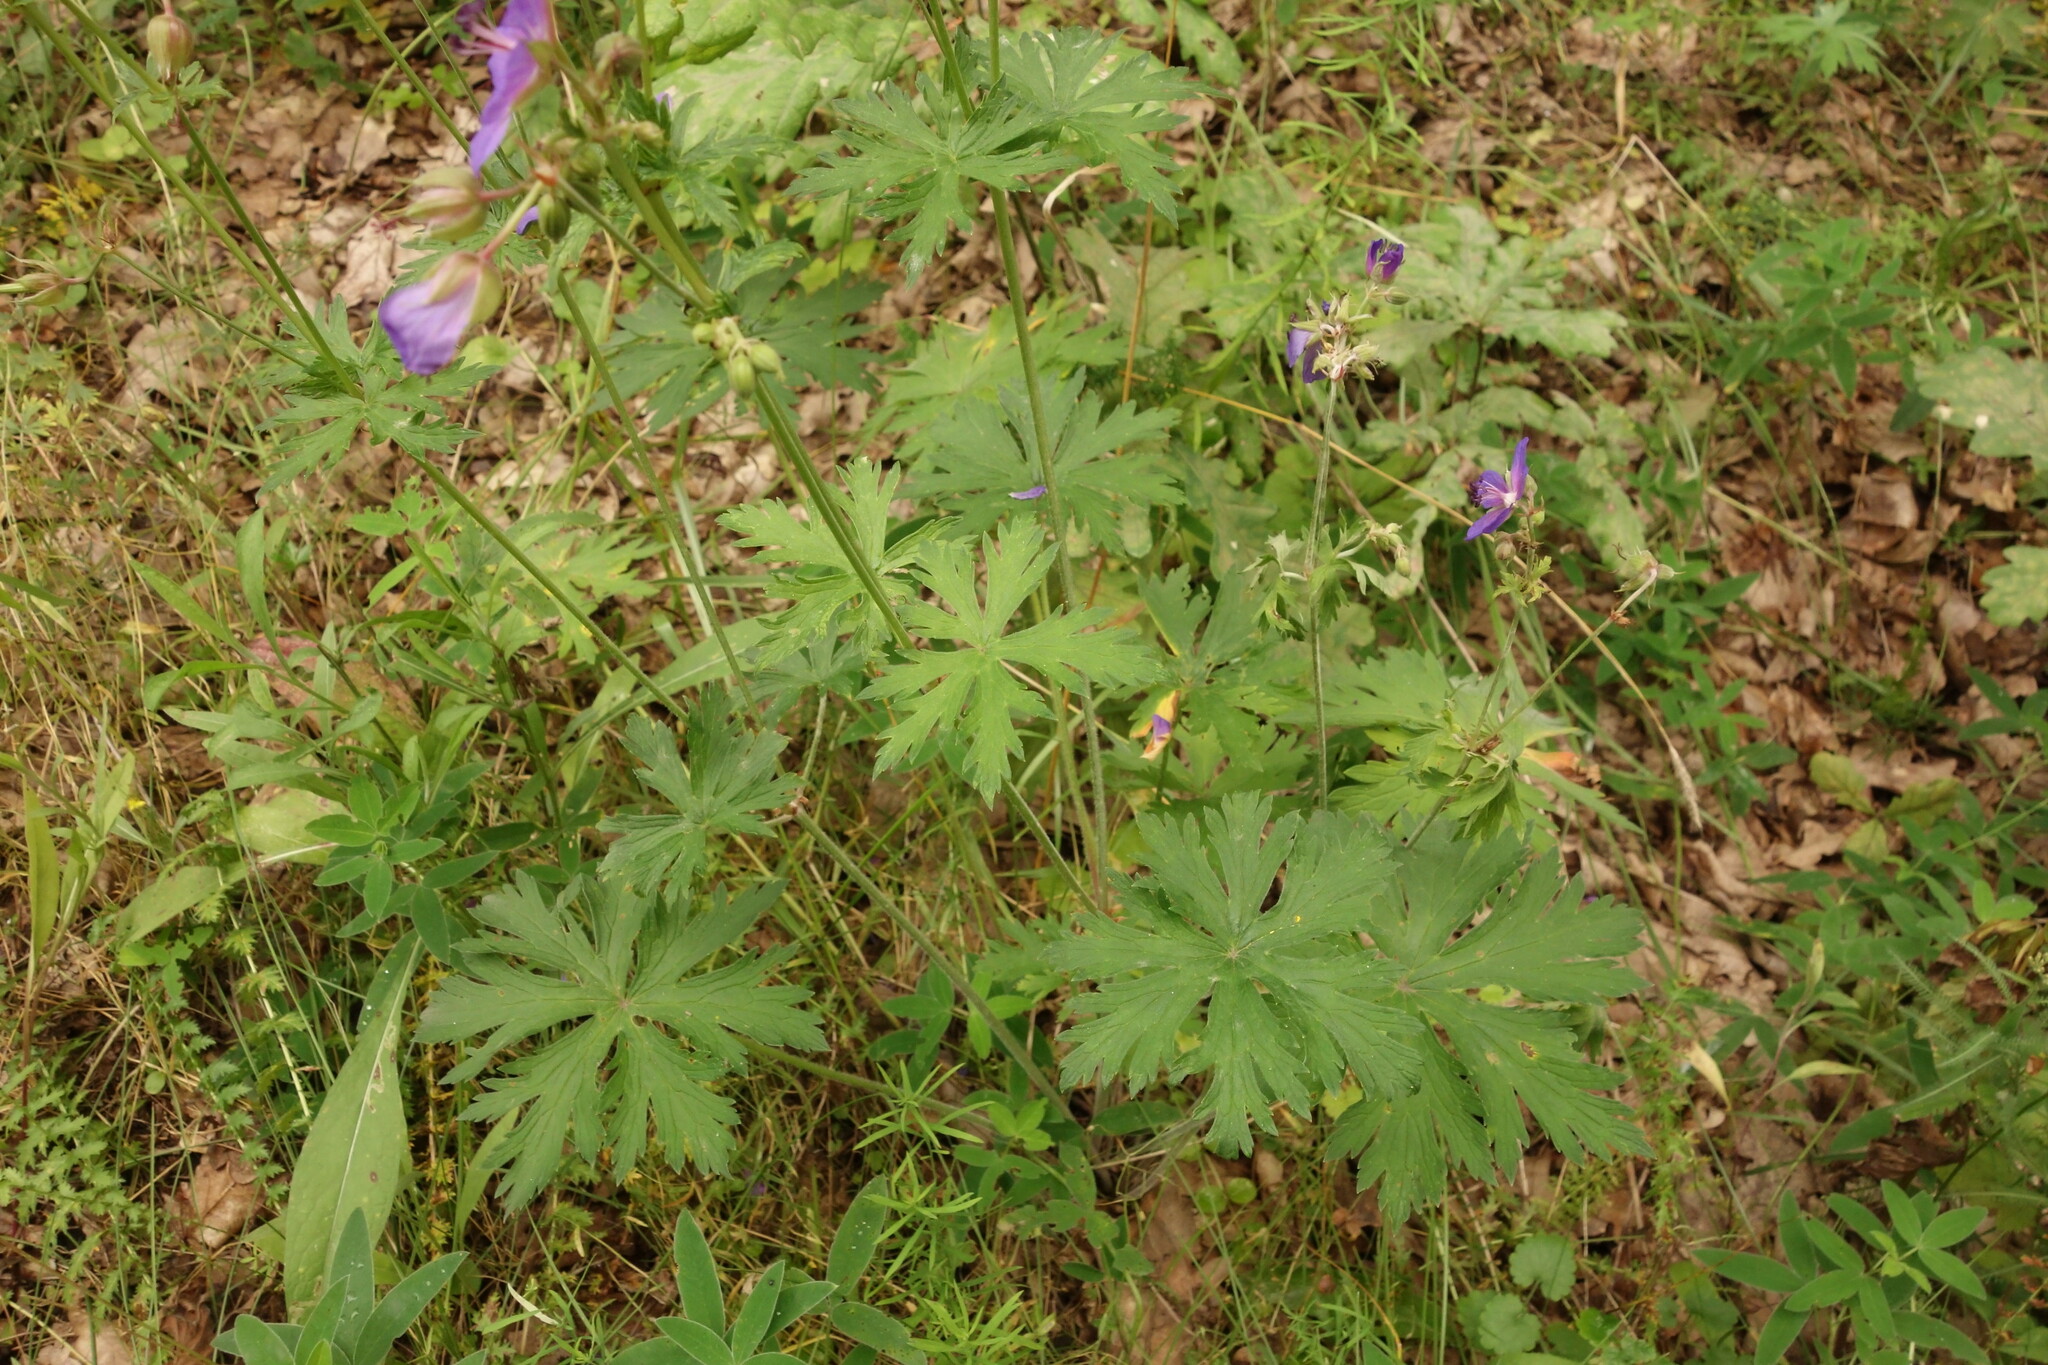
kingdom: Plantae
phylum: Tracheophyta
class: Magnoliopsida
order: Geraniales
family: Geraniaceae
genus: Geranium
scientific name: Geranium pratense
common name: Meadow crane's-bill
